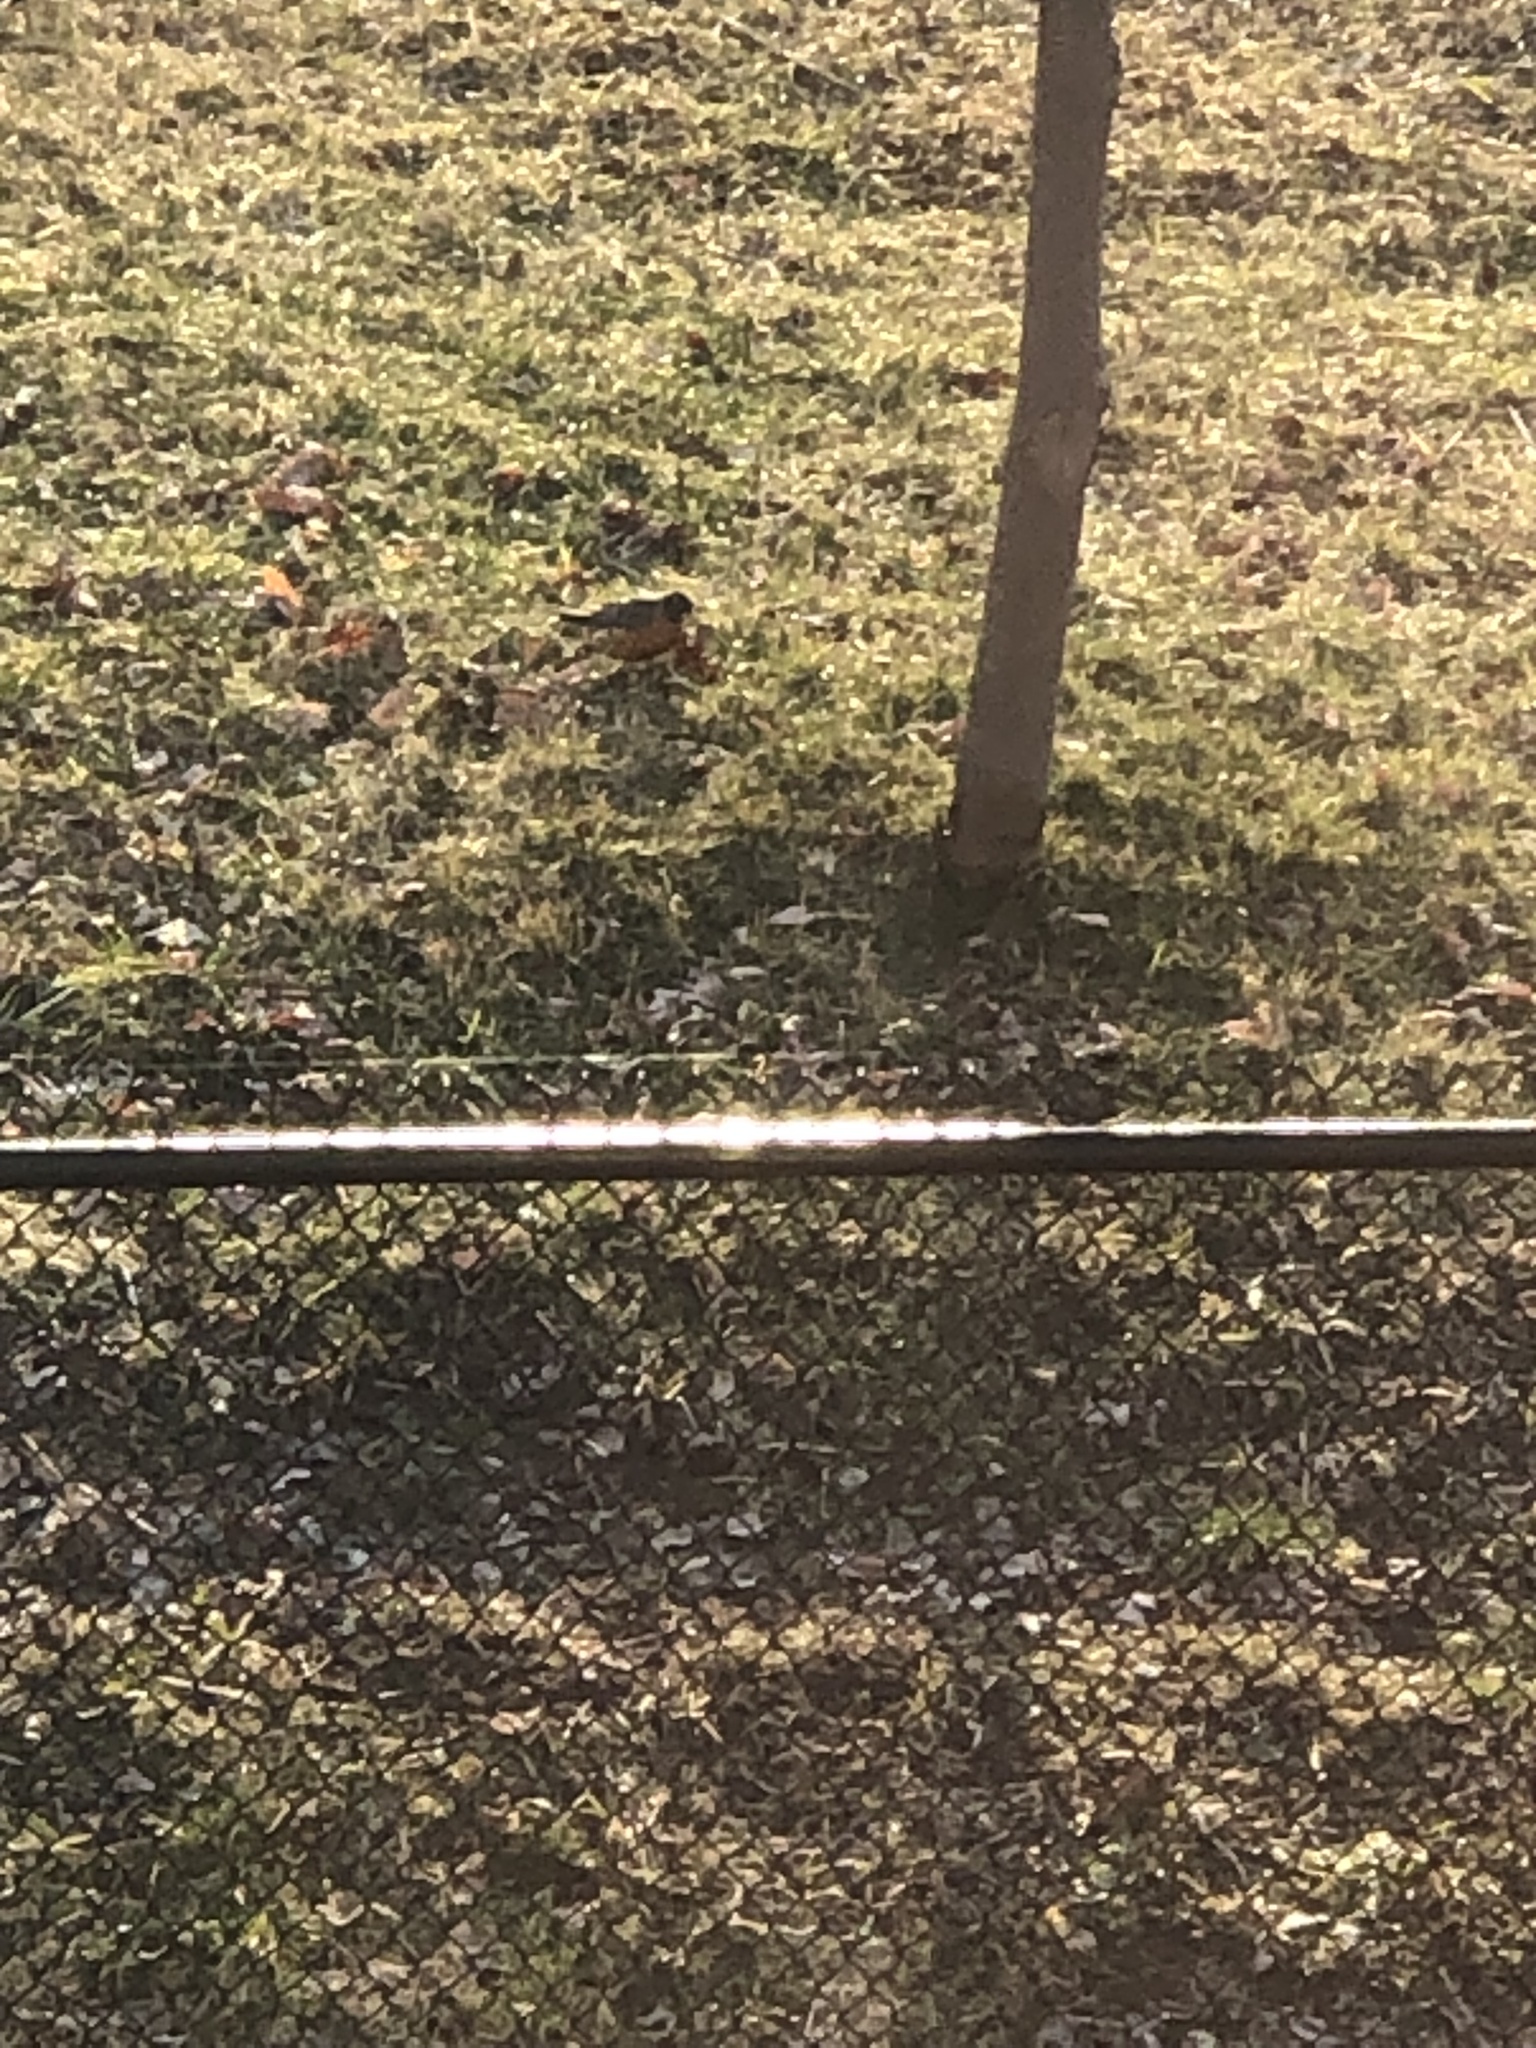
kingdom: Animalia
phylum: Chordata
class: Aves
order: Passeriformes
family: Turdidae
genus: Turdus
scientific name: Turdus migratorius
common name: American robin
